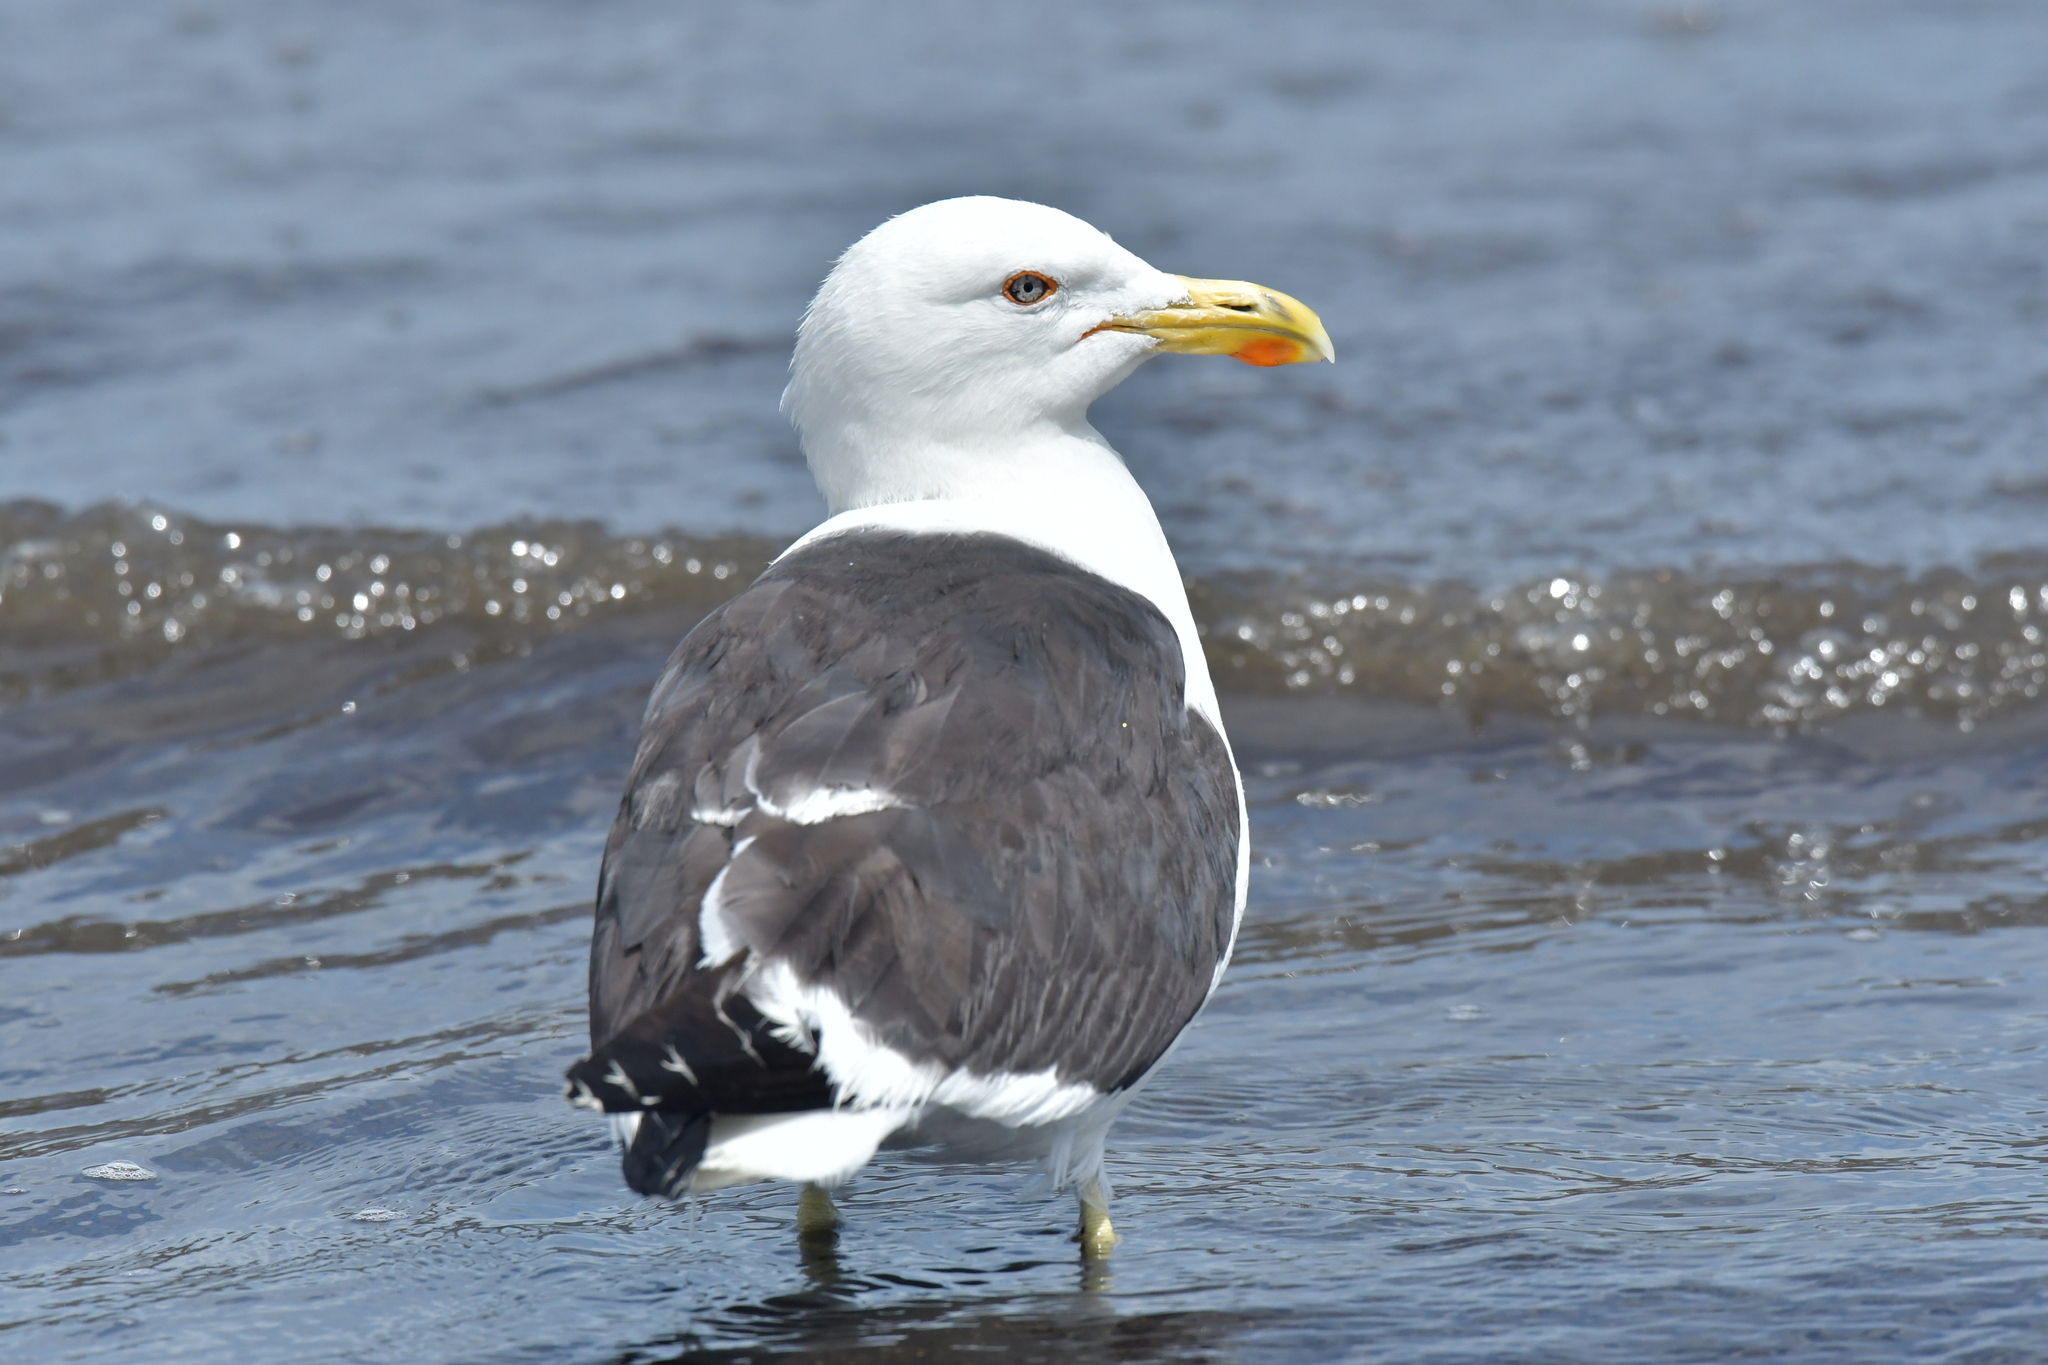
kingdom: Animalia
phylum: Chordata
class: Aves
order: Charadriiformes
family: Laridae
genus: Larus
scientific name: Larus dominicanus
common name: Kelp gull
